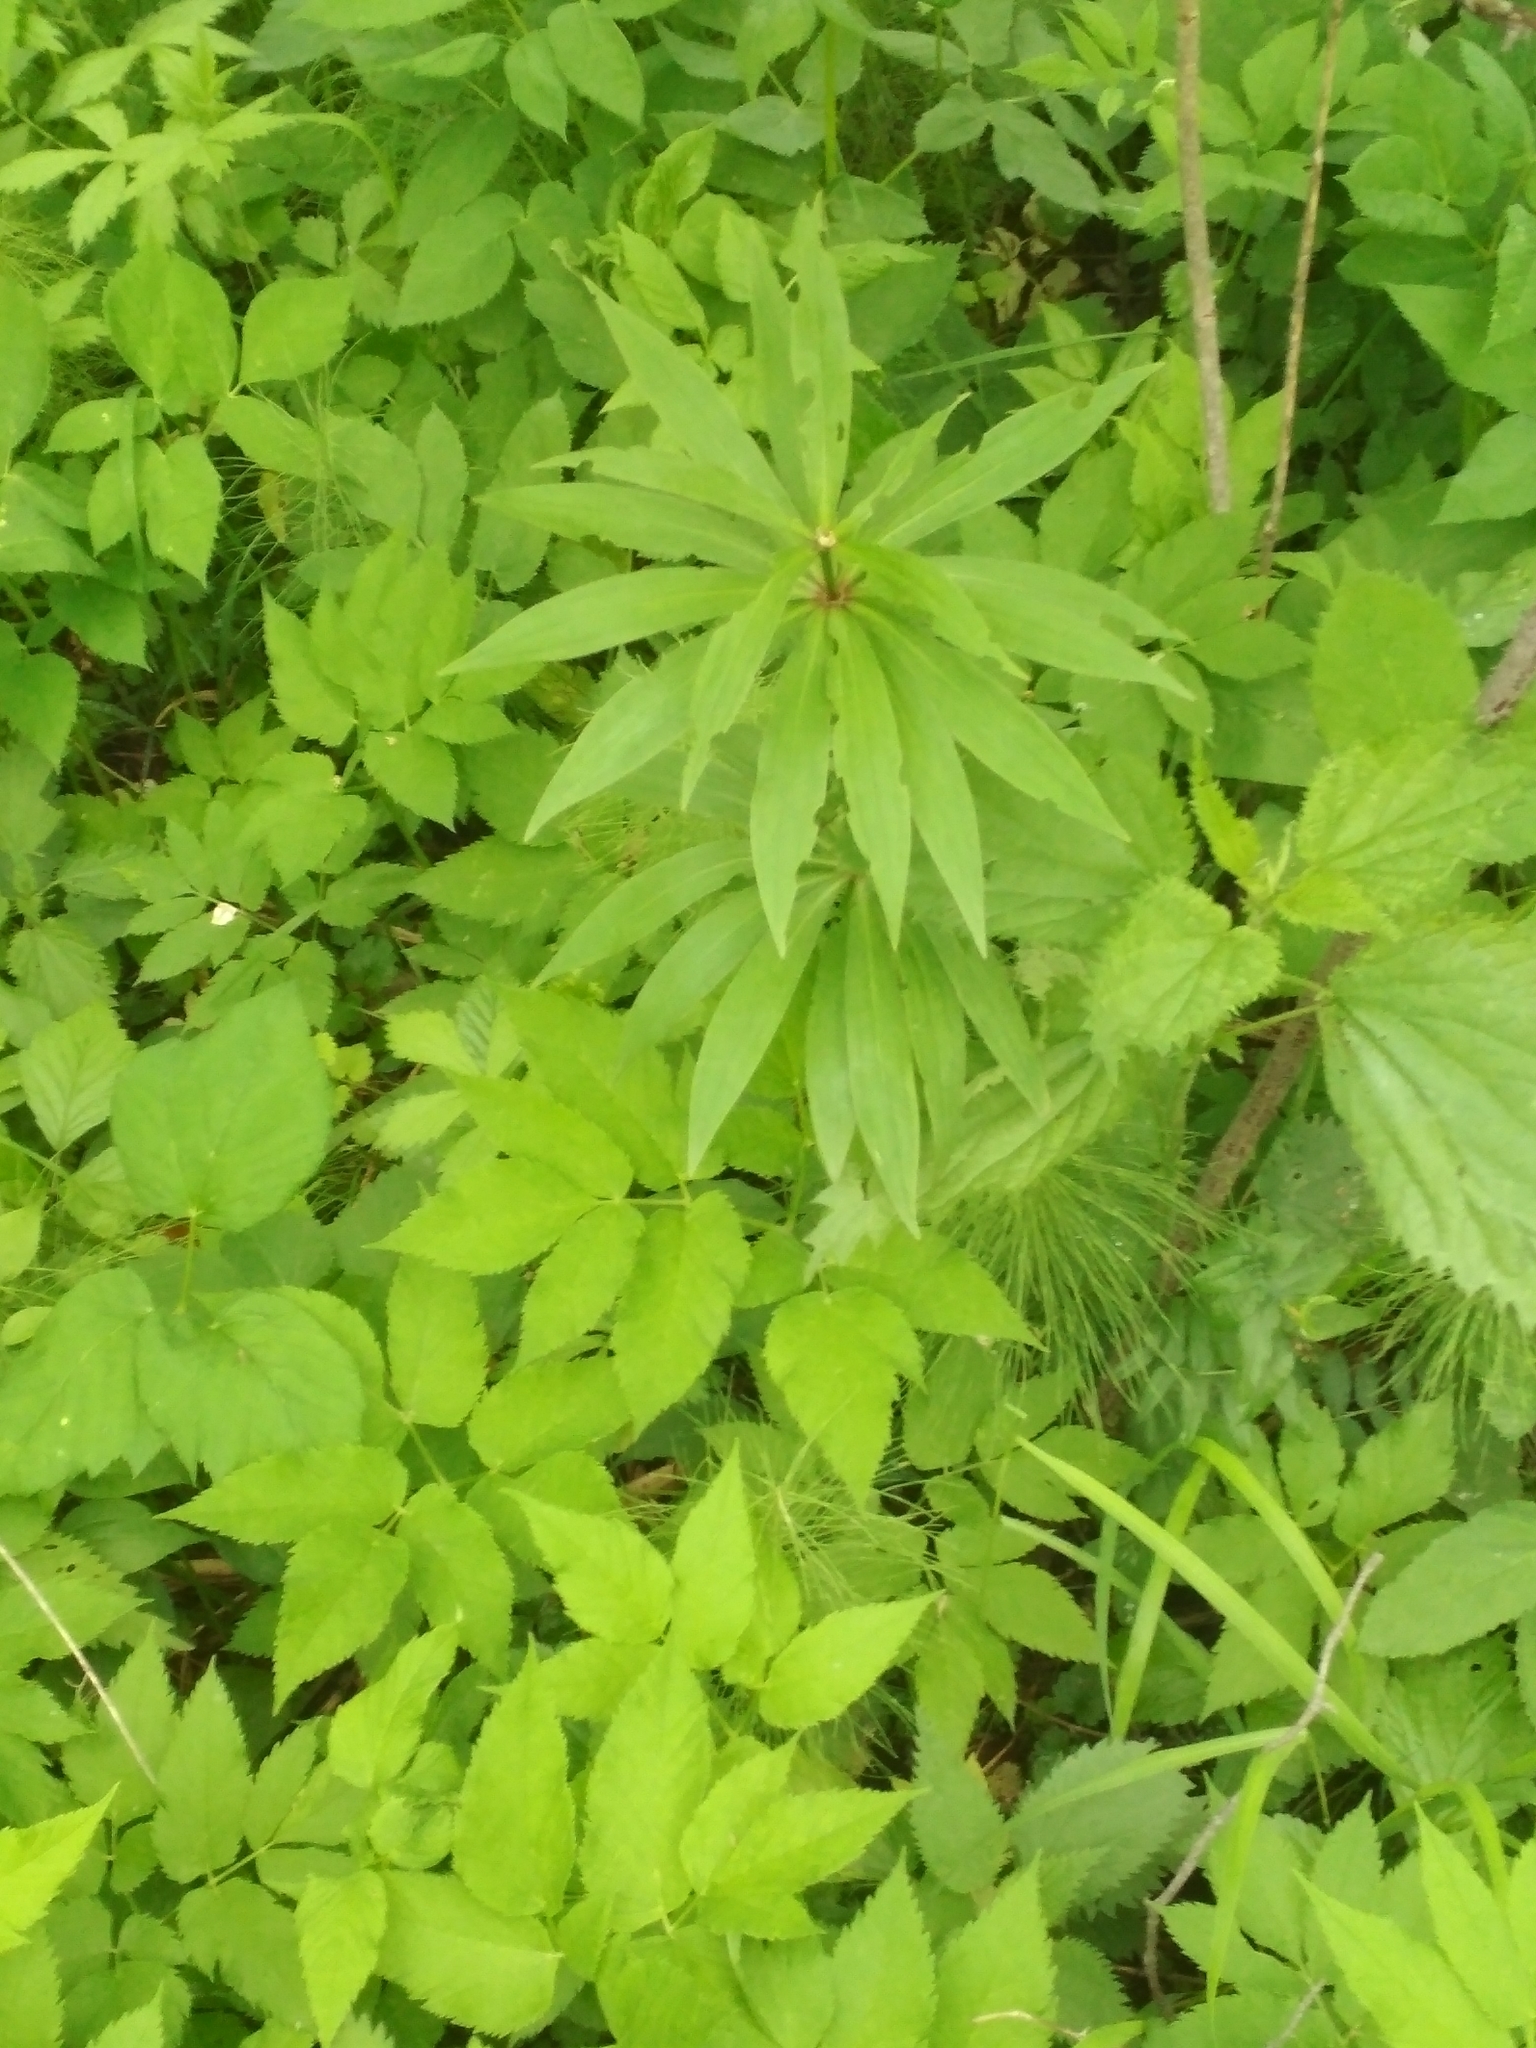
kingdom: Plantae
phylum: Tracheophyta
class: Liliopsida
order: Liliales
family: Liliaceae
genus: Lilium
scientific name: Lilium martagon
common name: Martagon lily
